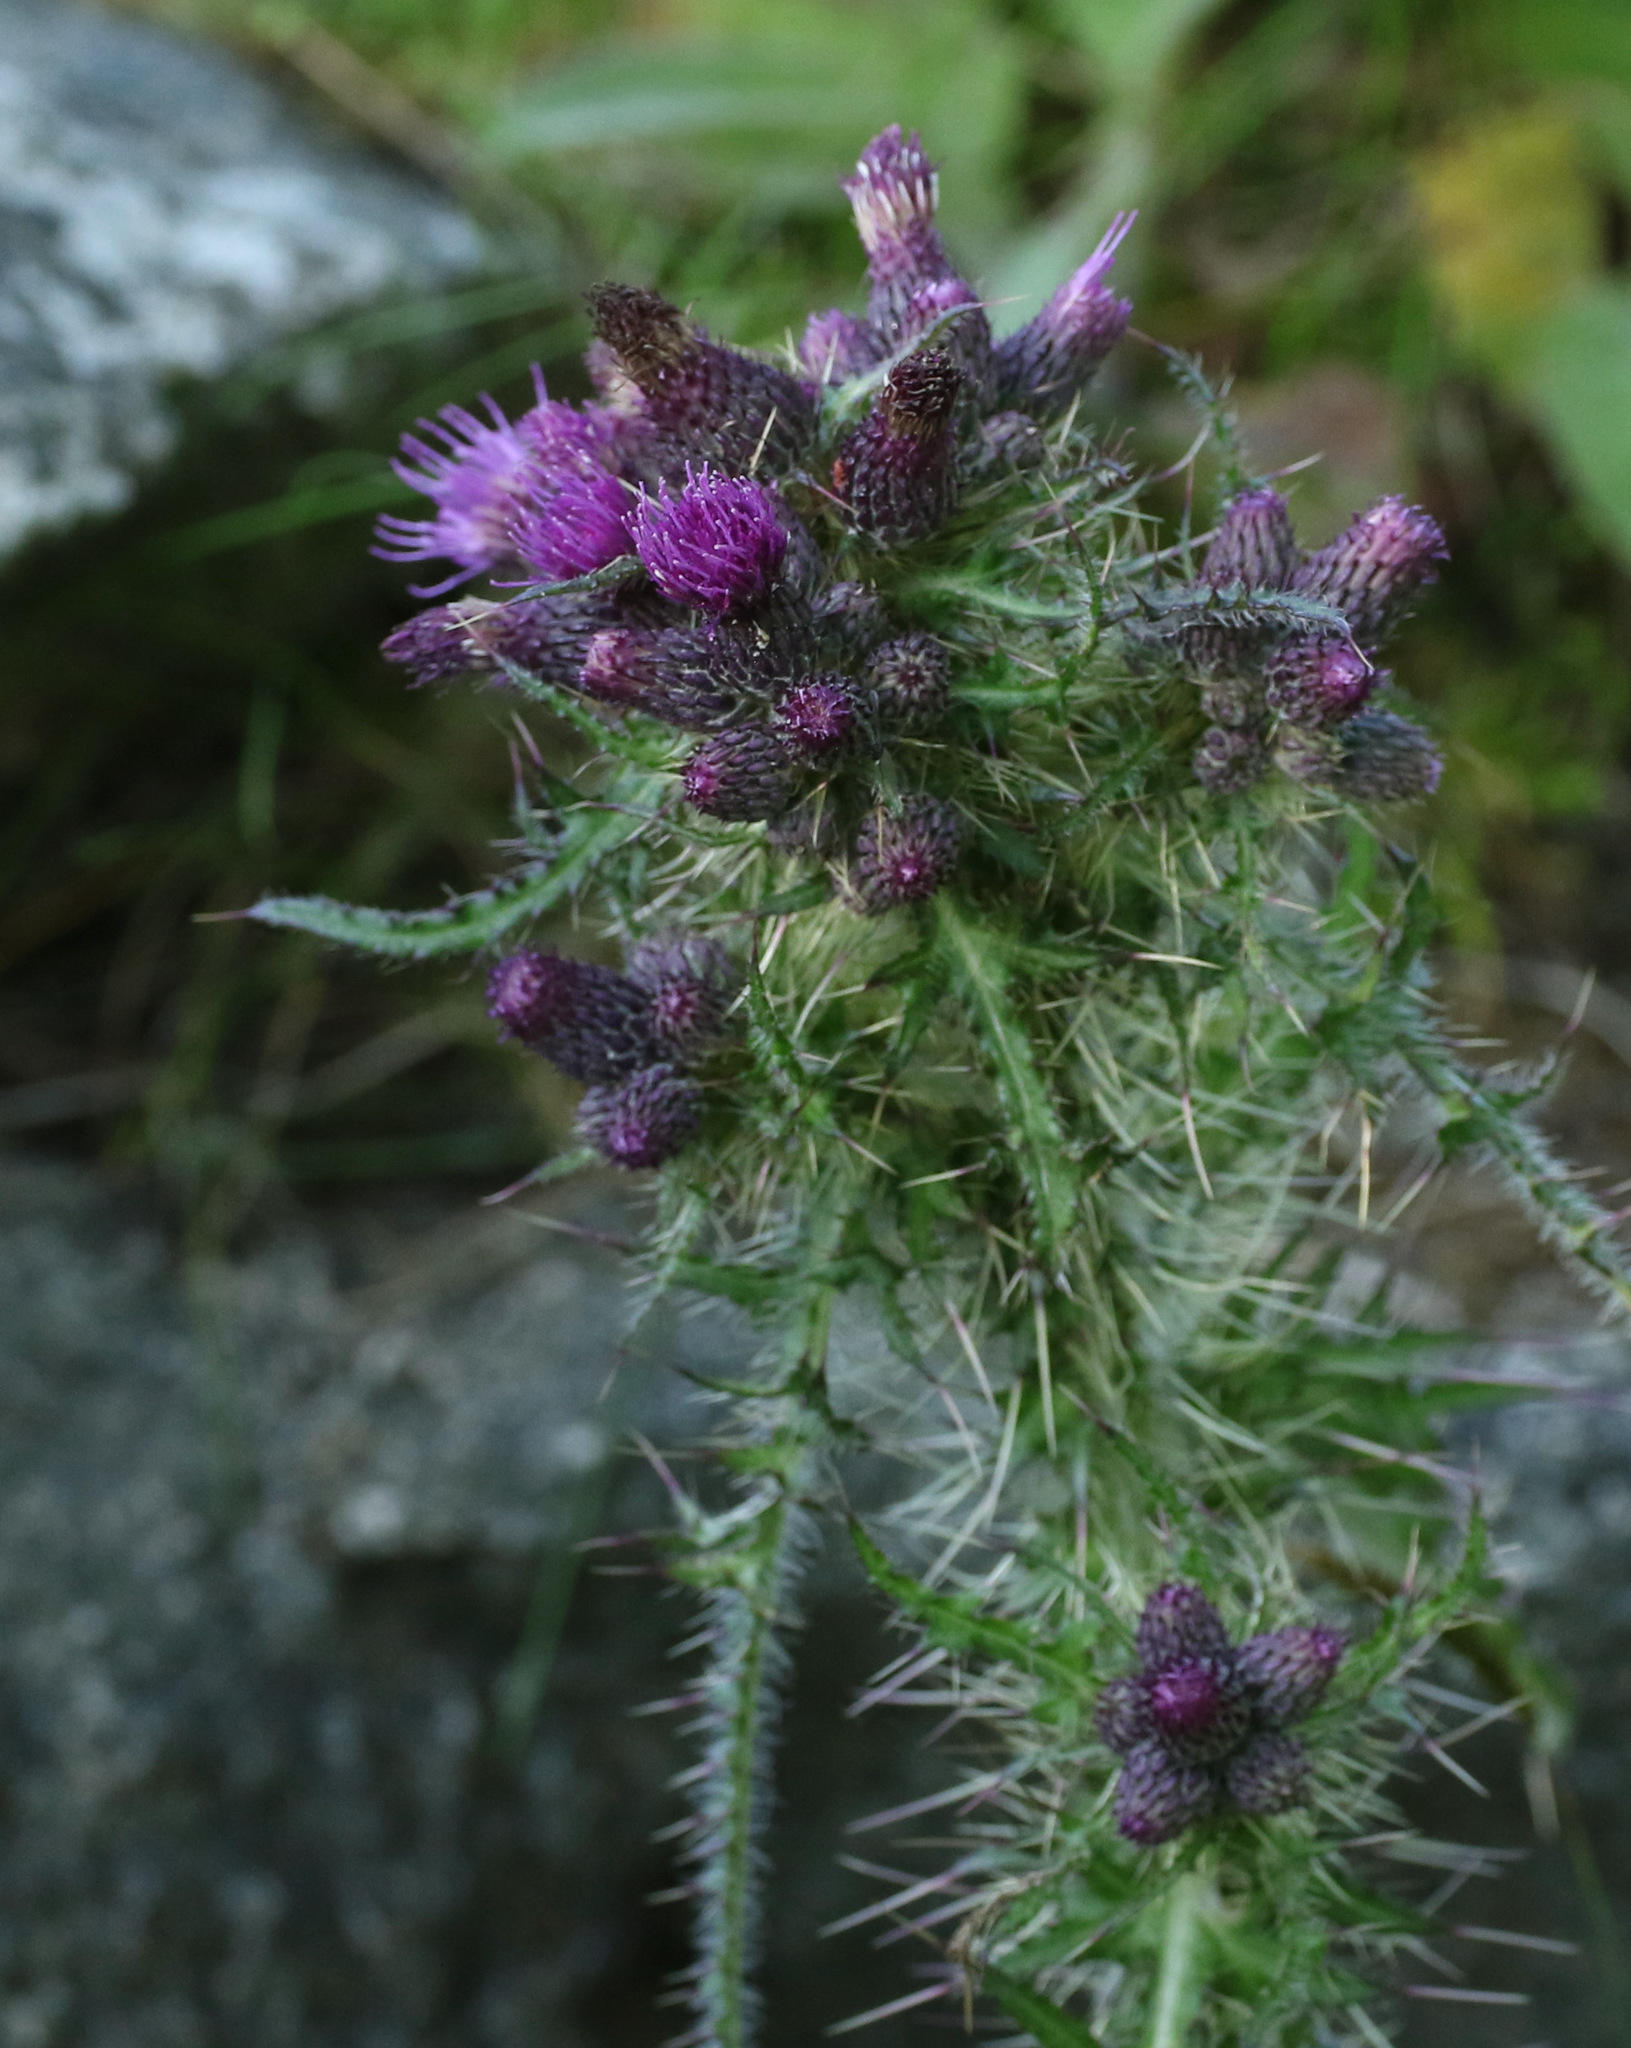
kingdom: Plantae
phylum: Tracheophyta
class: Magnoliopsida
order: Asterales
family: Asteraceae
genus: Cirsium
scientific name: Cirsium palustre
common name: Marsh thistle
